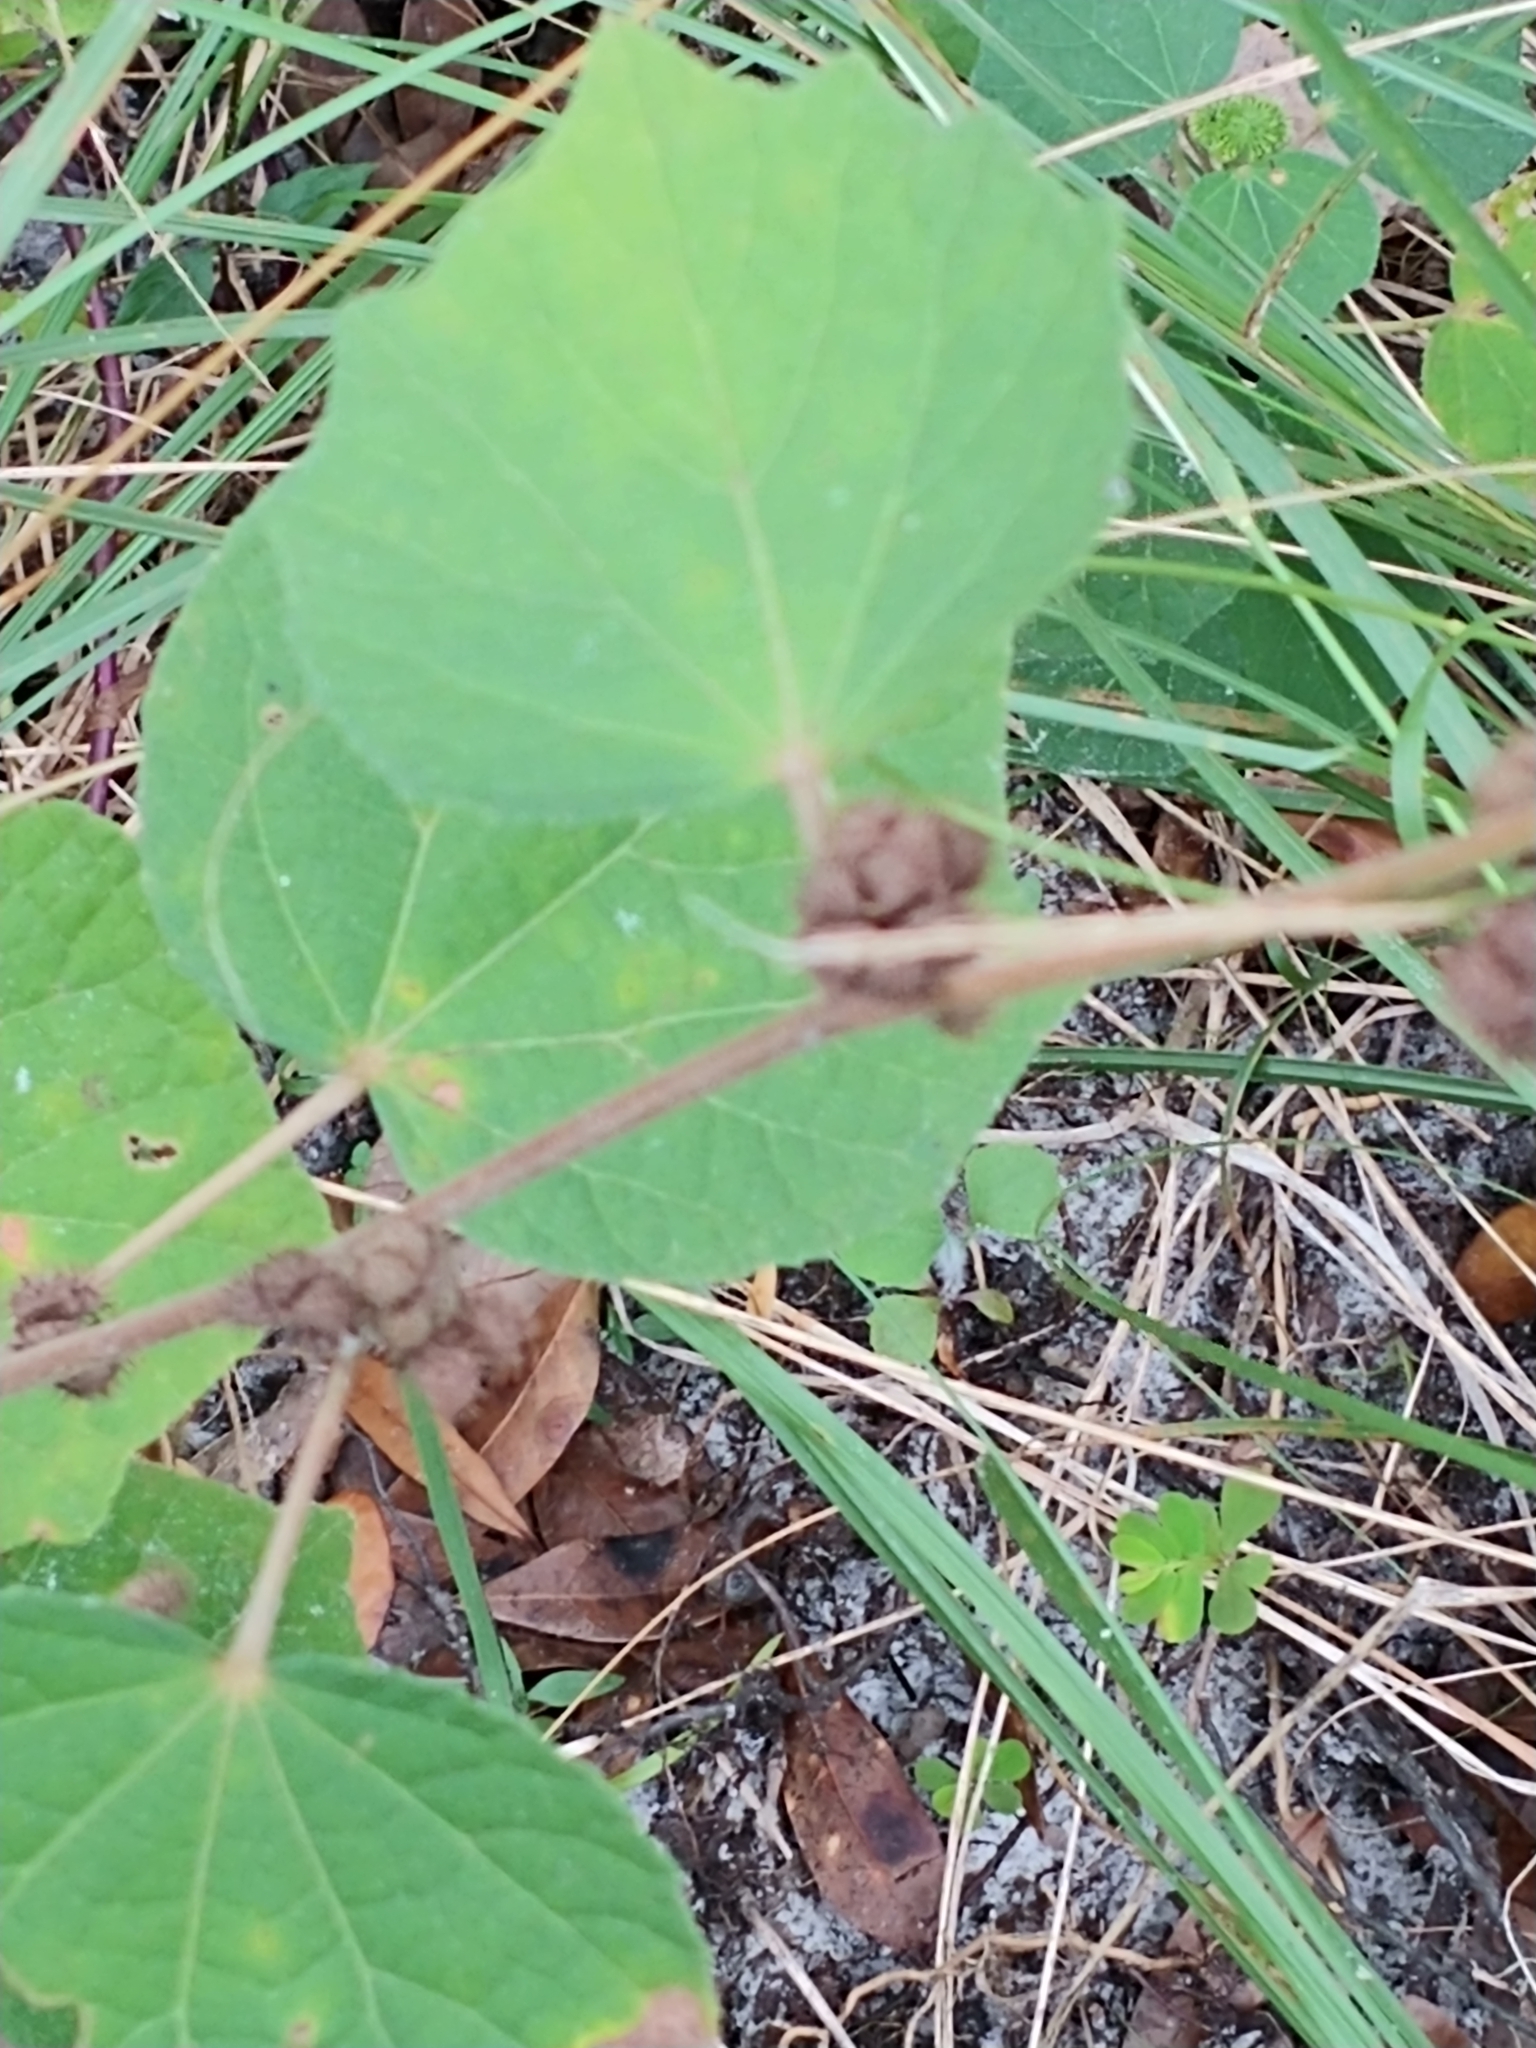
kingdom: Plantae
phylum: Tracheophyta
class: Magnoliopsida
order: Malvales
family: Malvaceae
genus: Urena
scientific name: Urena lobata
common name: Caesarweed
